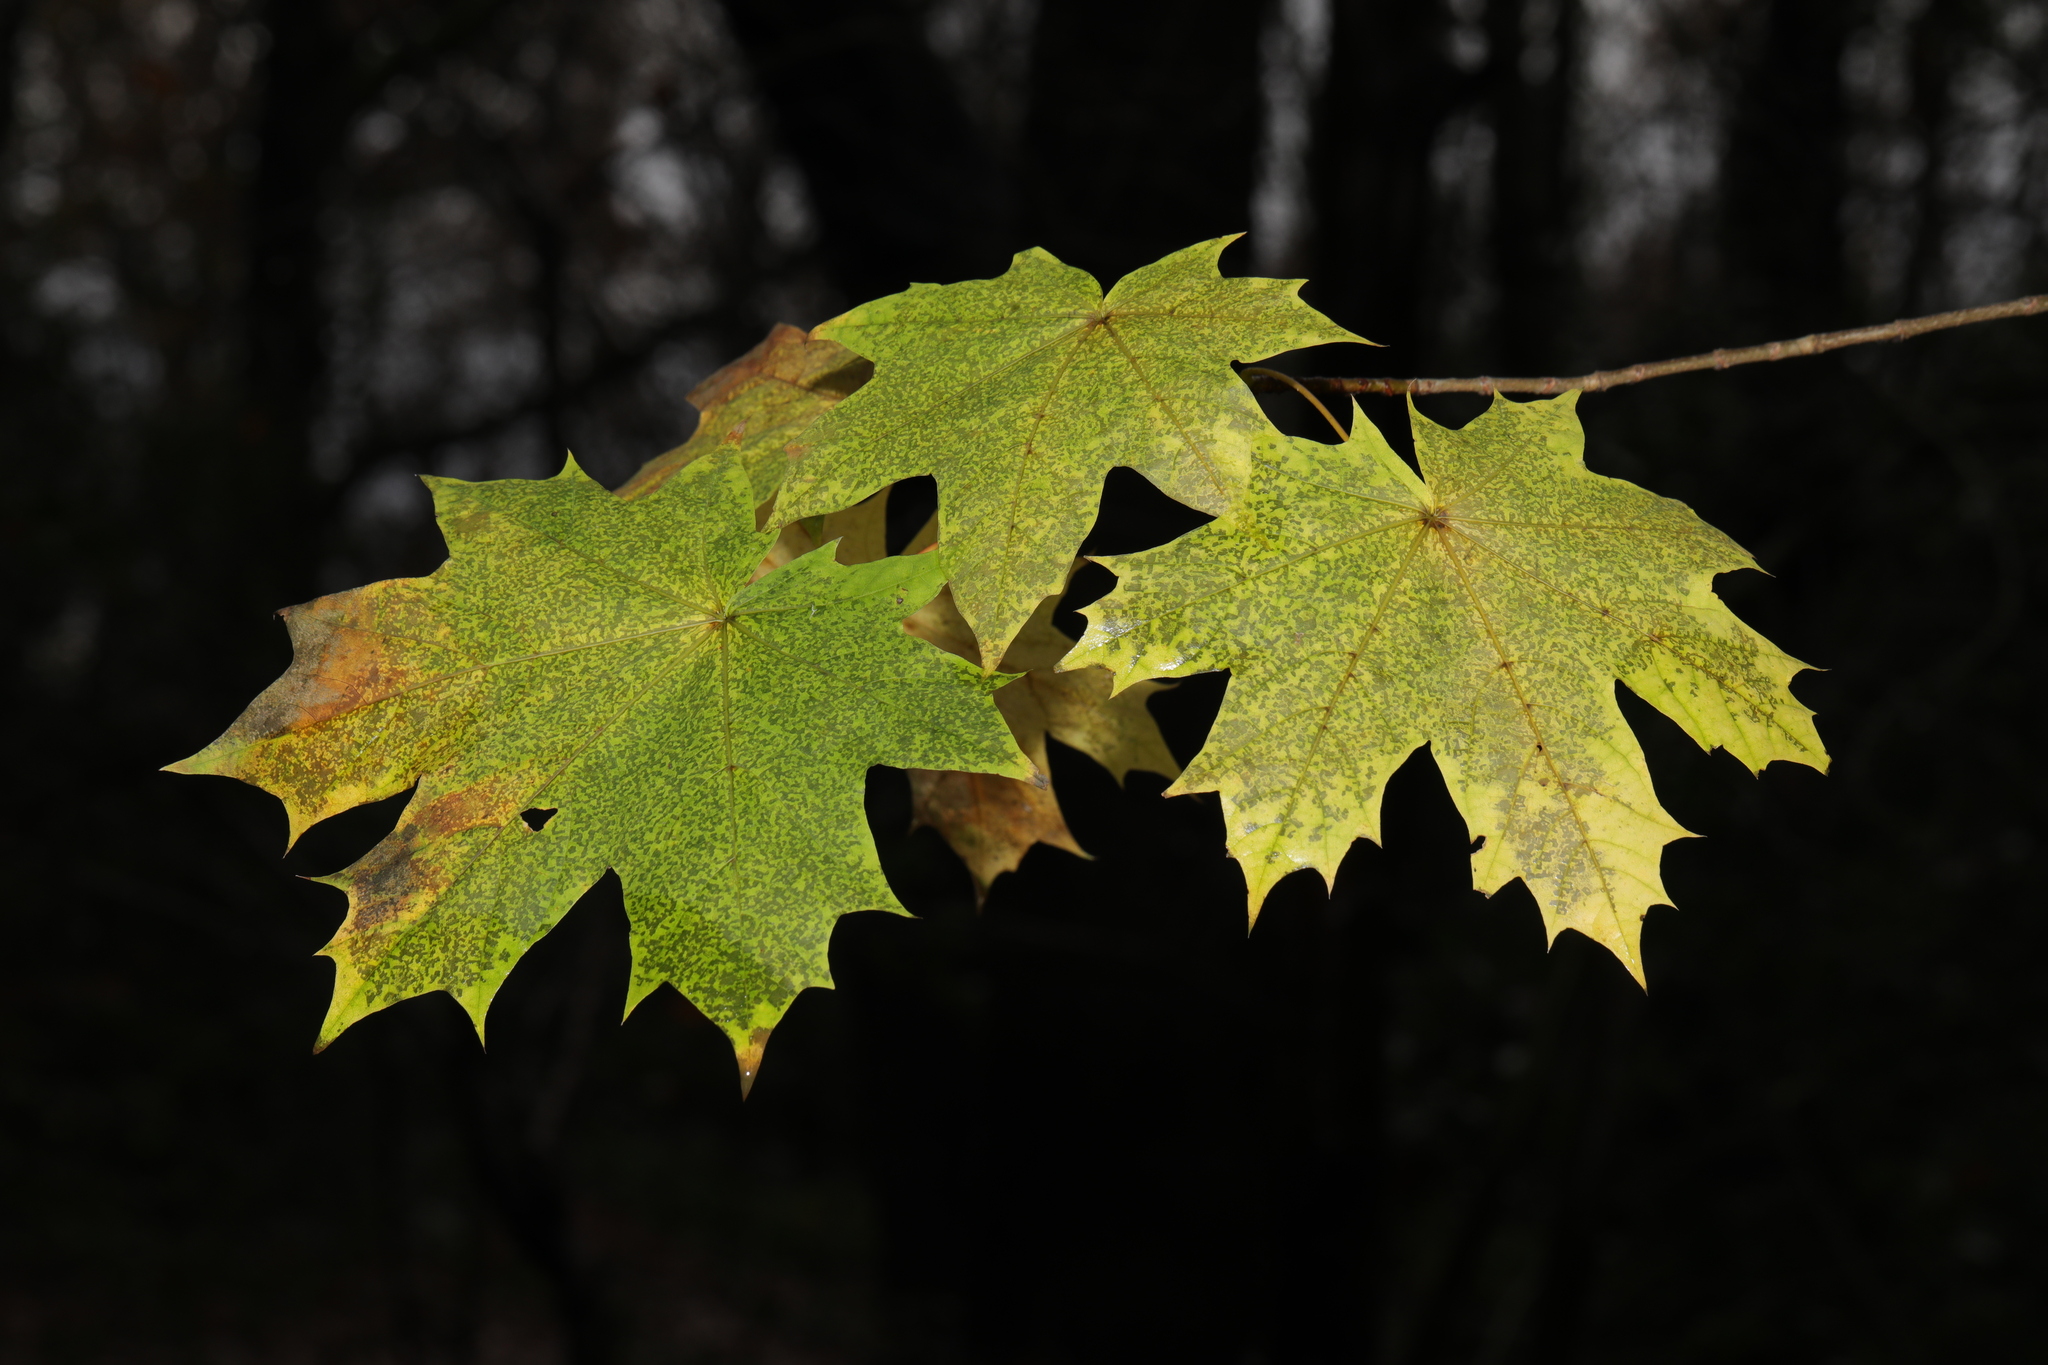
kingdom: Plantae
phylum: Tracheophyta
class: Magnoliopsida
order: Sapindales
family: Sapindaceae
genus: Acer
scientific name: Acer platanoides
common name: Norway maple
